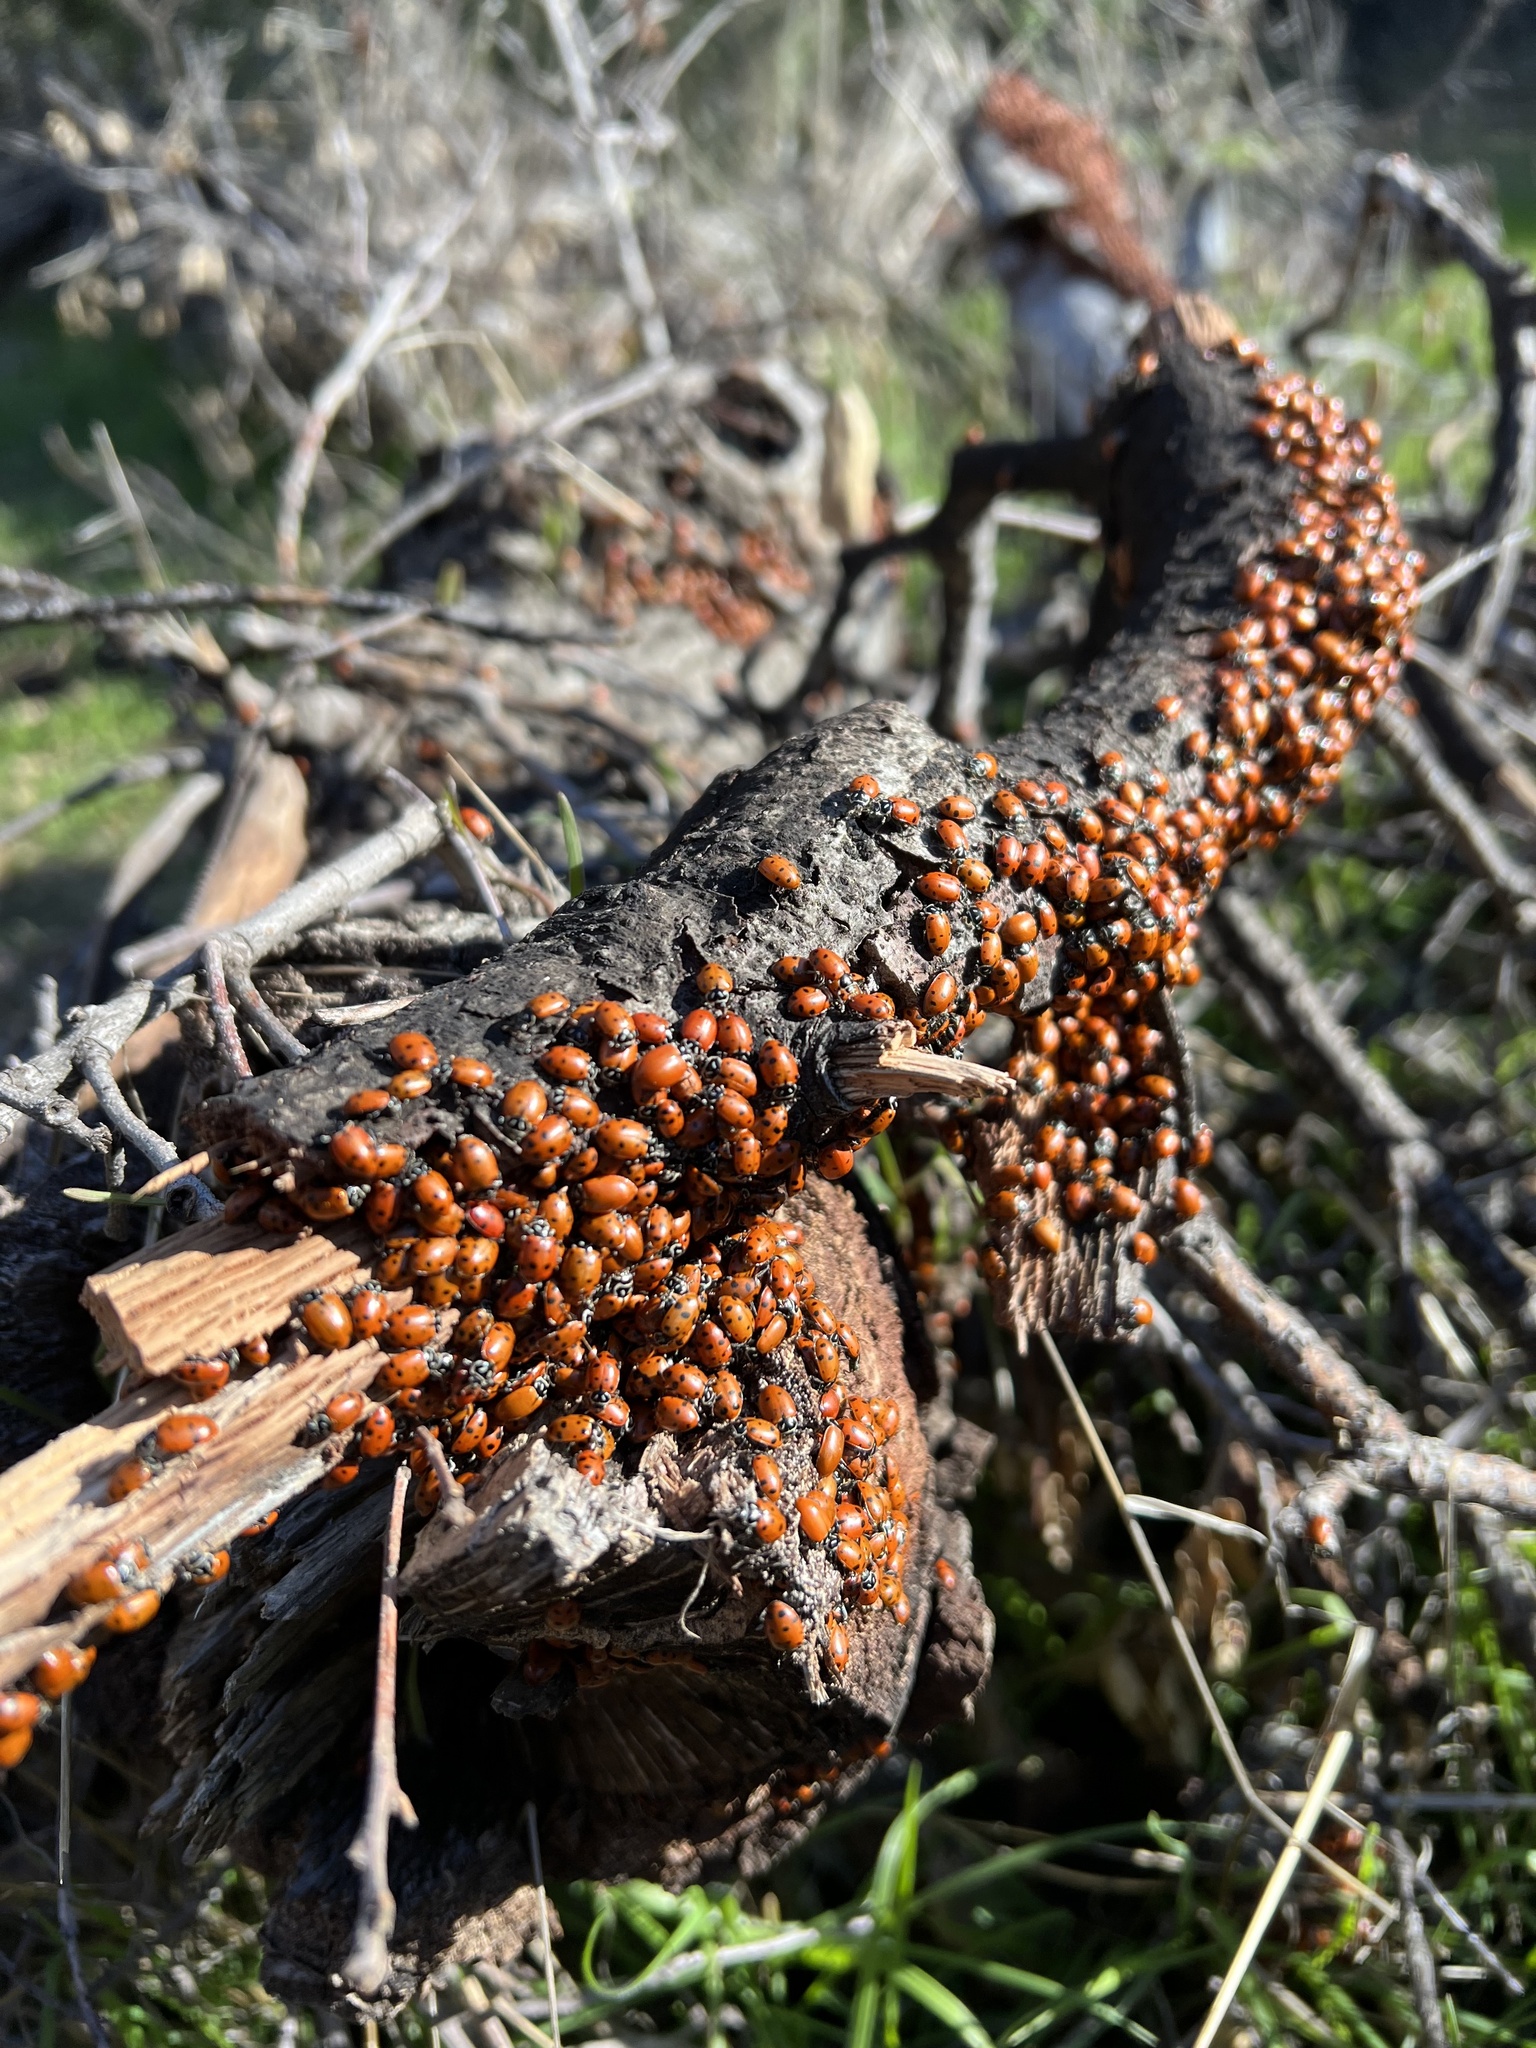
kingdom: Animalia
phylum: Arthropoda
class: Insecta
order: Coleoptera
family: Coccinellidae
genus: Hippodamia
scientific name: Hippodamia convergens
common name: Convergent lady beetle
